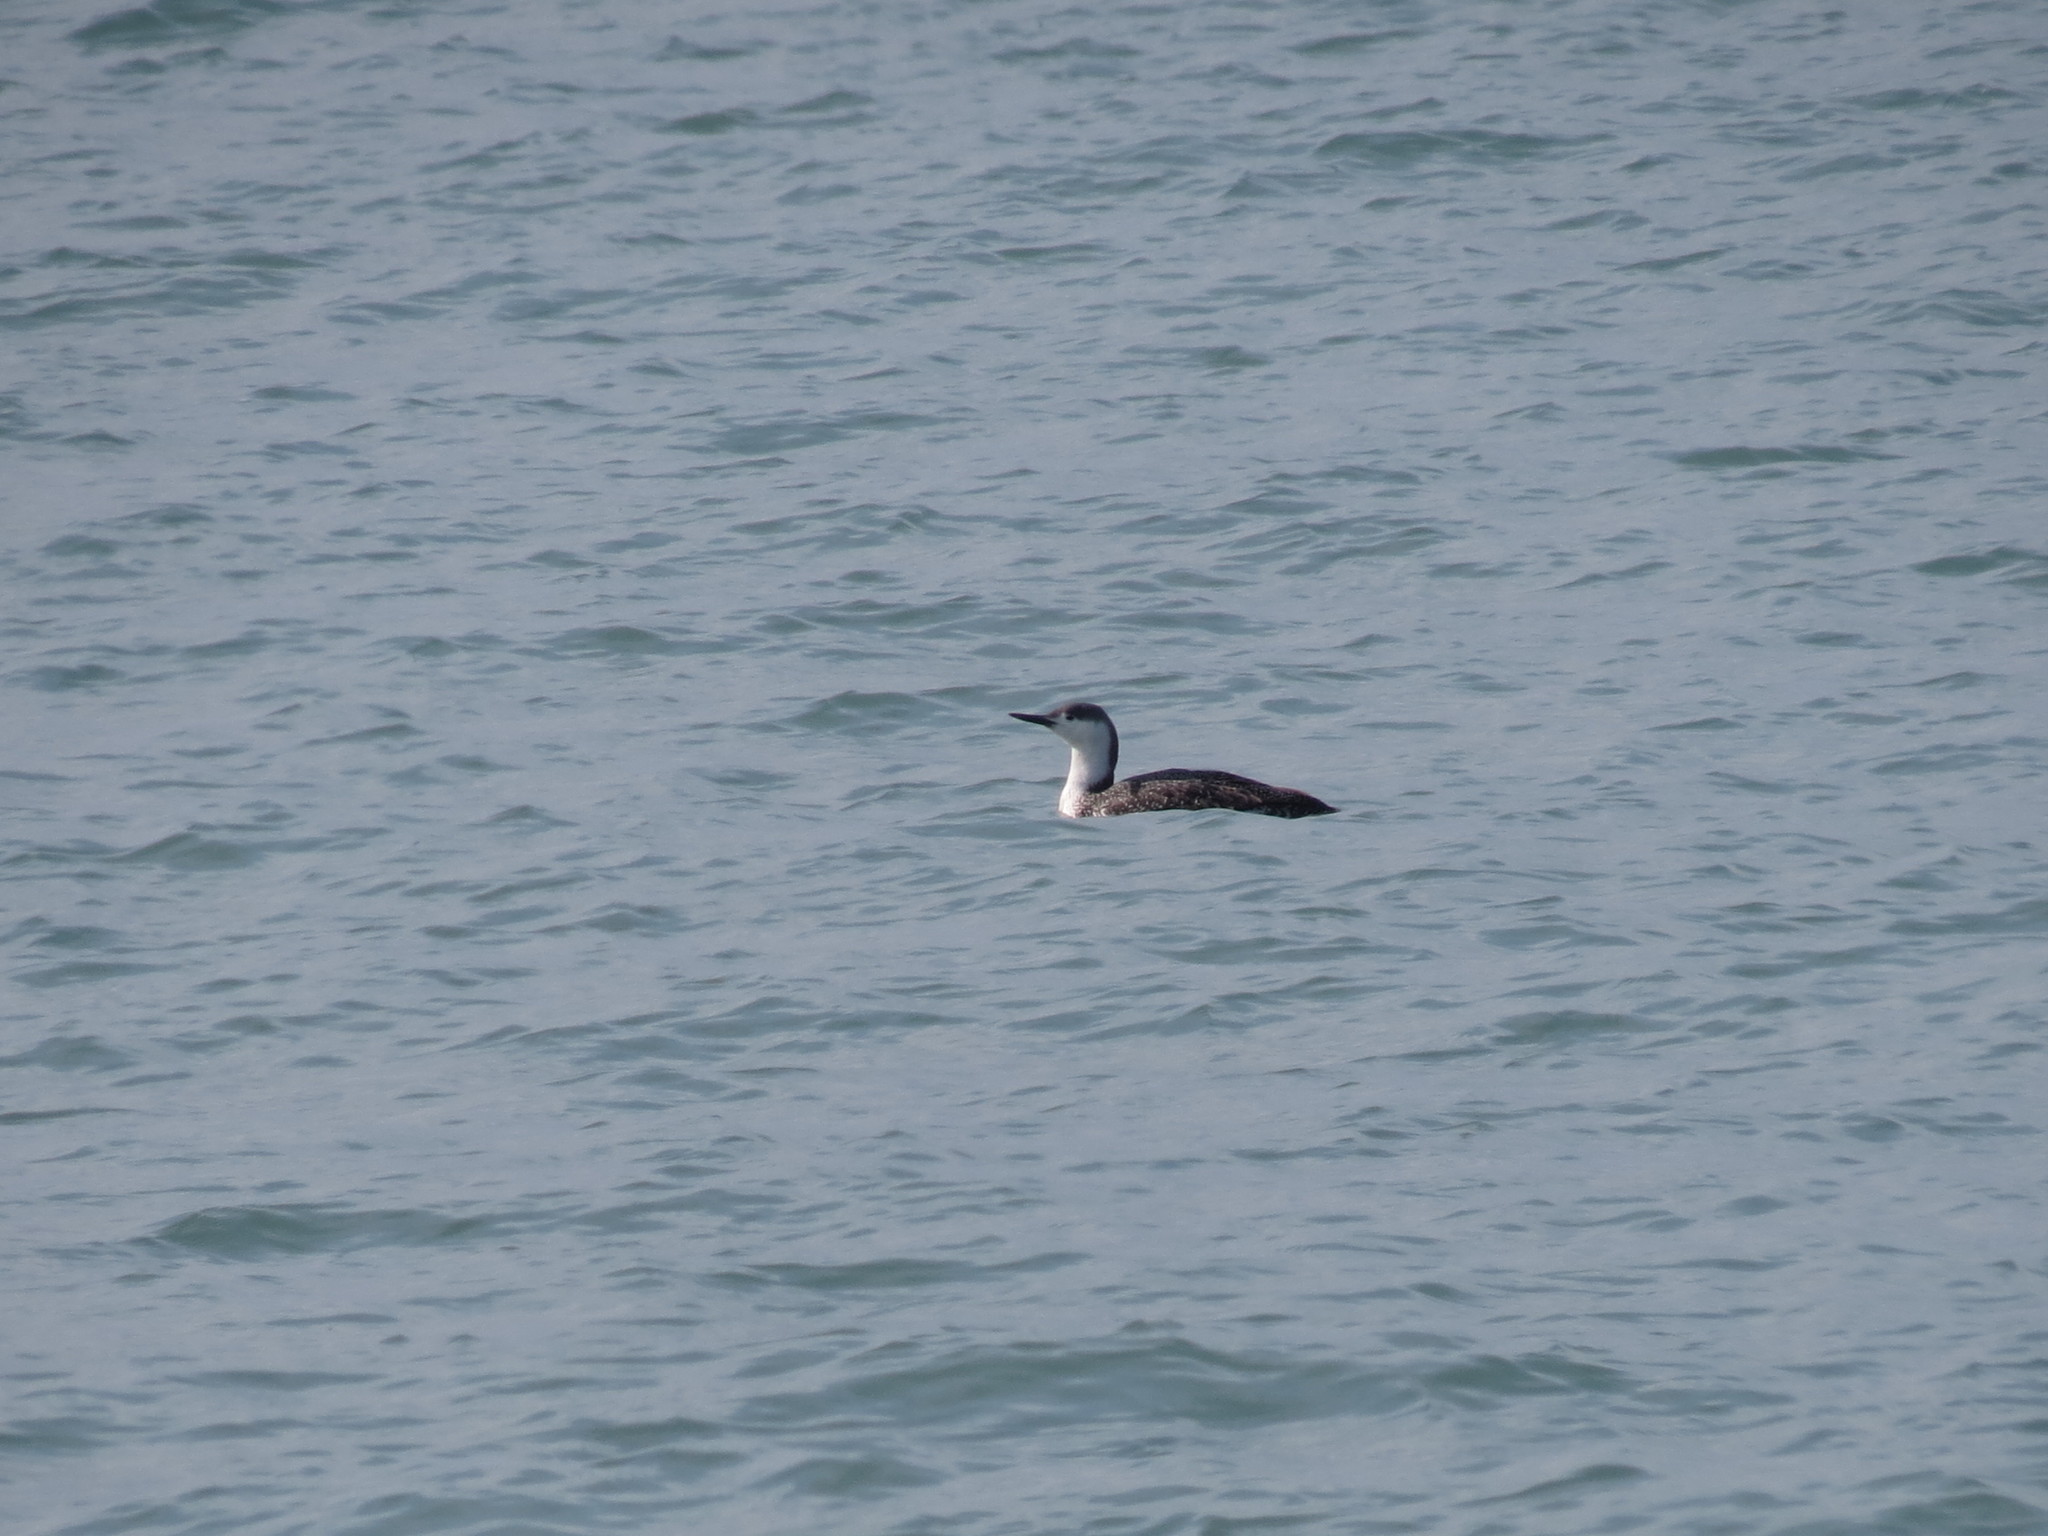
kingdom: Animalia
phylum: Chordata
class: Aves
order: Gaviiformes
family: Gaviidae
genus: Gavia
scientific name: Gavia stellata
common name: Red-throated loon
